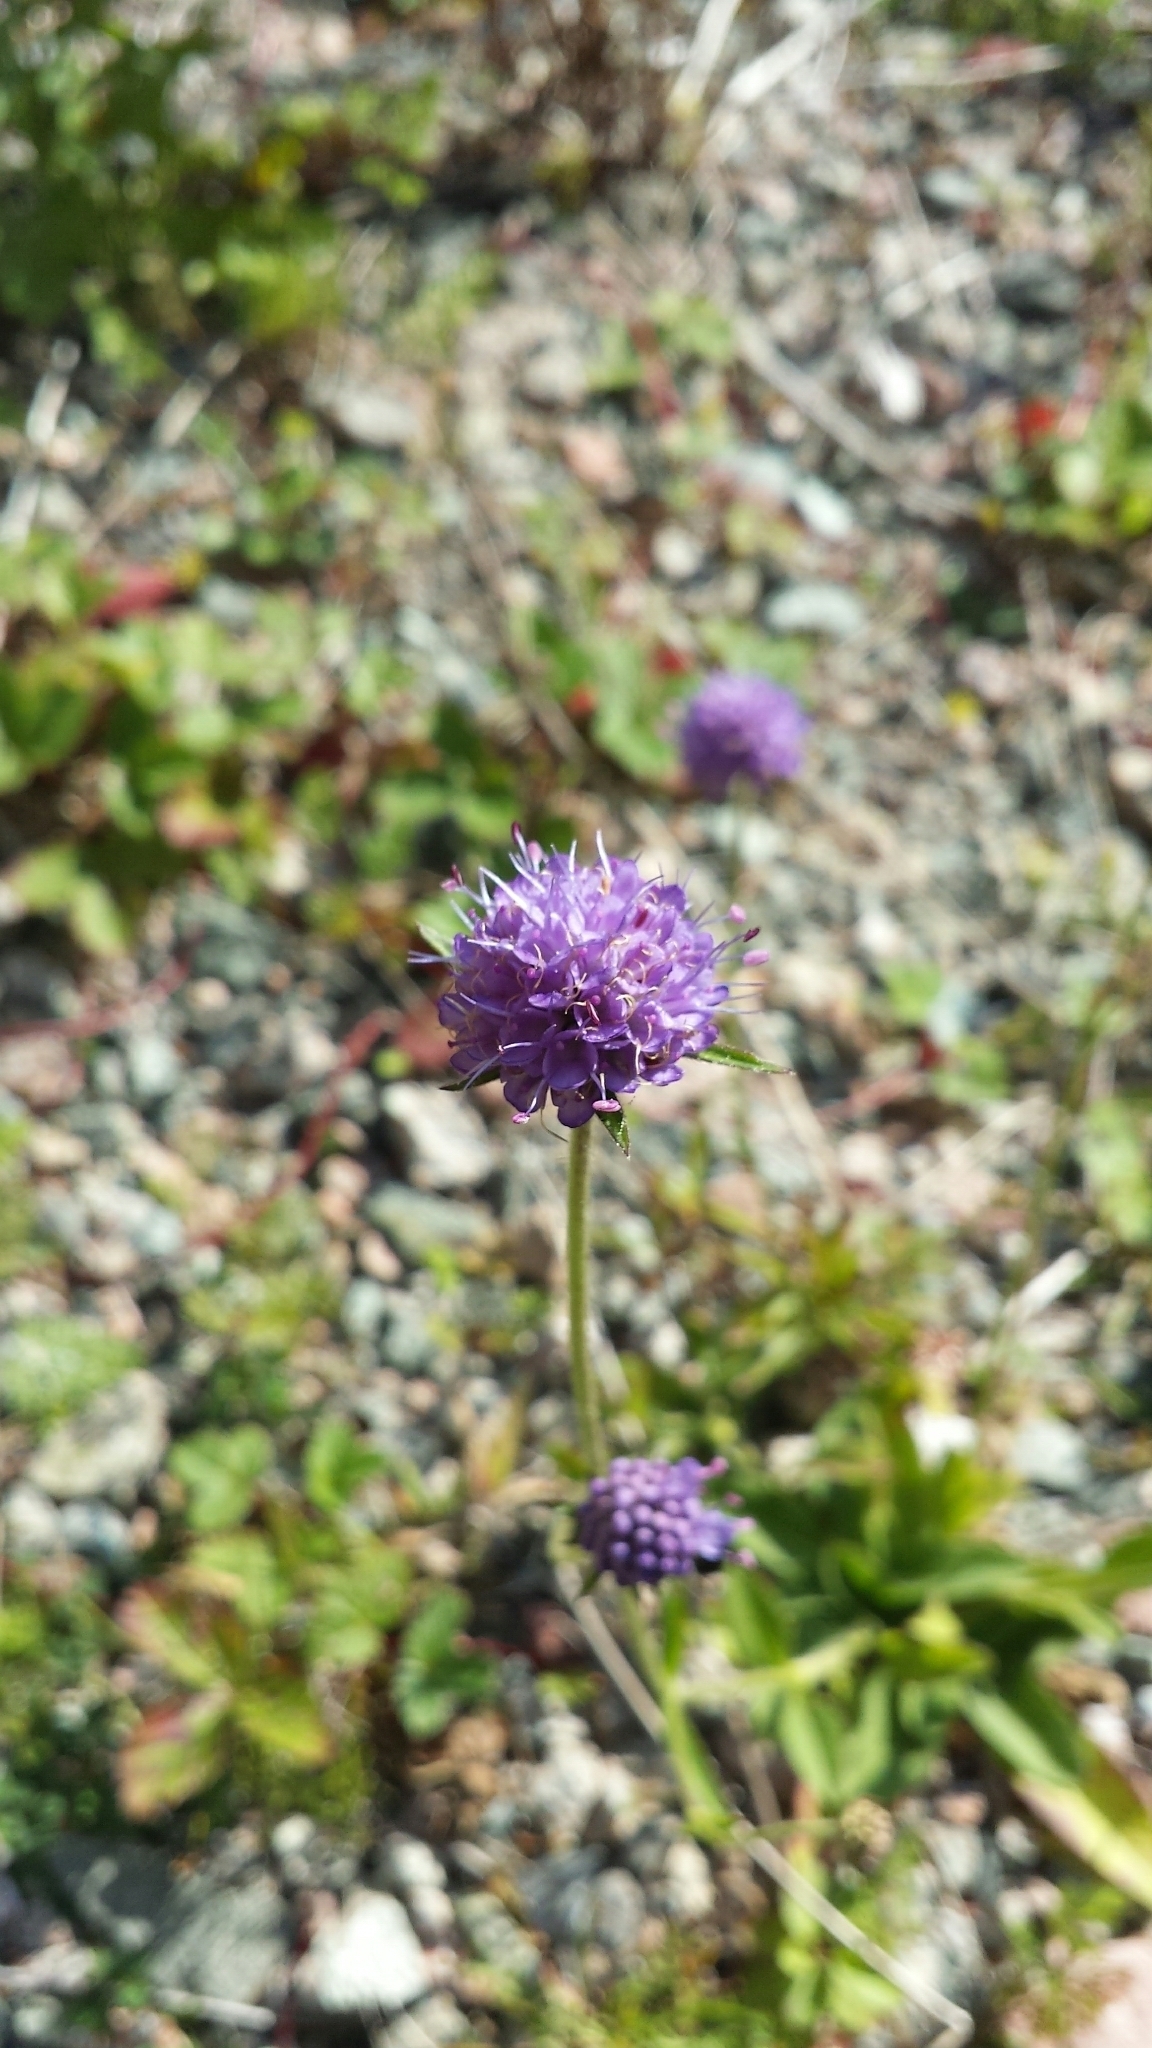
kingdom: Plantae
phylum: Tracheophyta
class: Magnoliopsida
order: Dipsacales
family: Caprifoliaceae
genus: Succisa
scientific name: Succisa pratensis
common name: Devil's-bit
